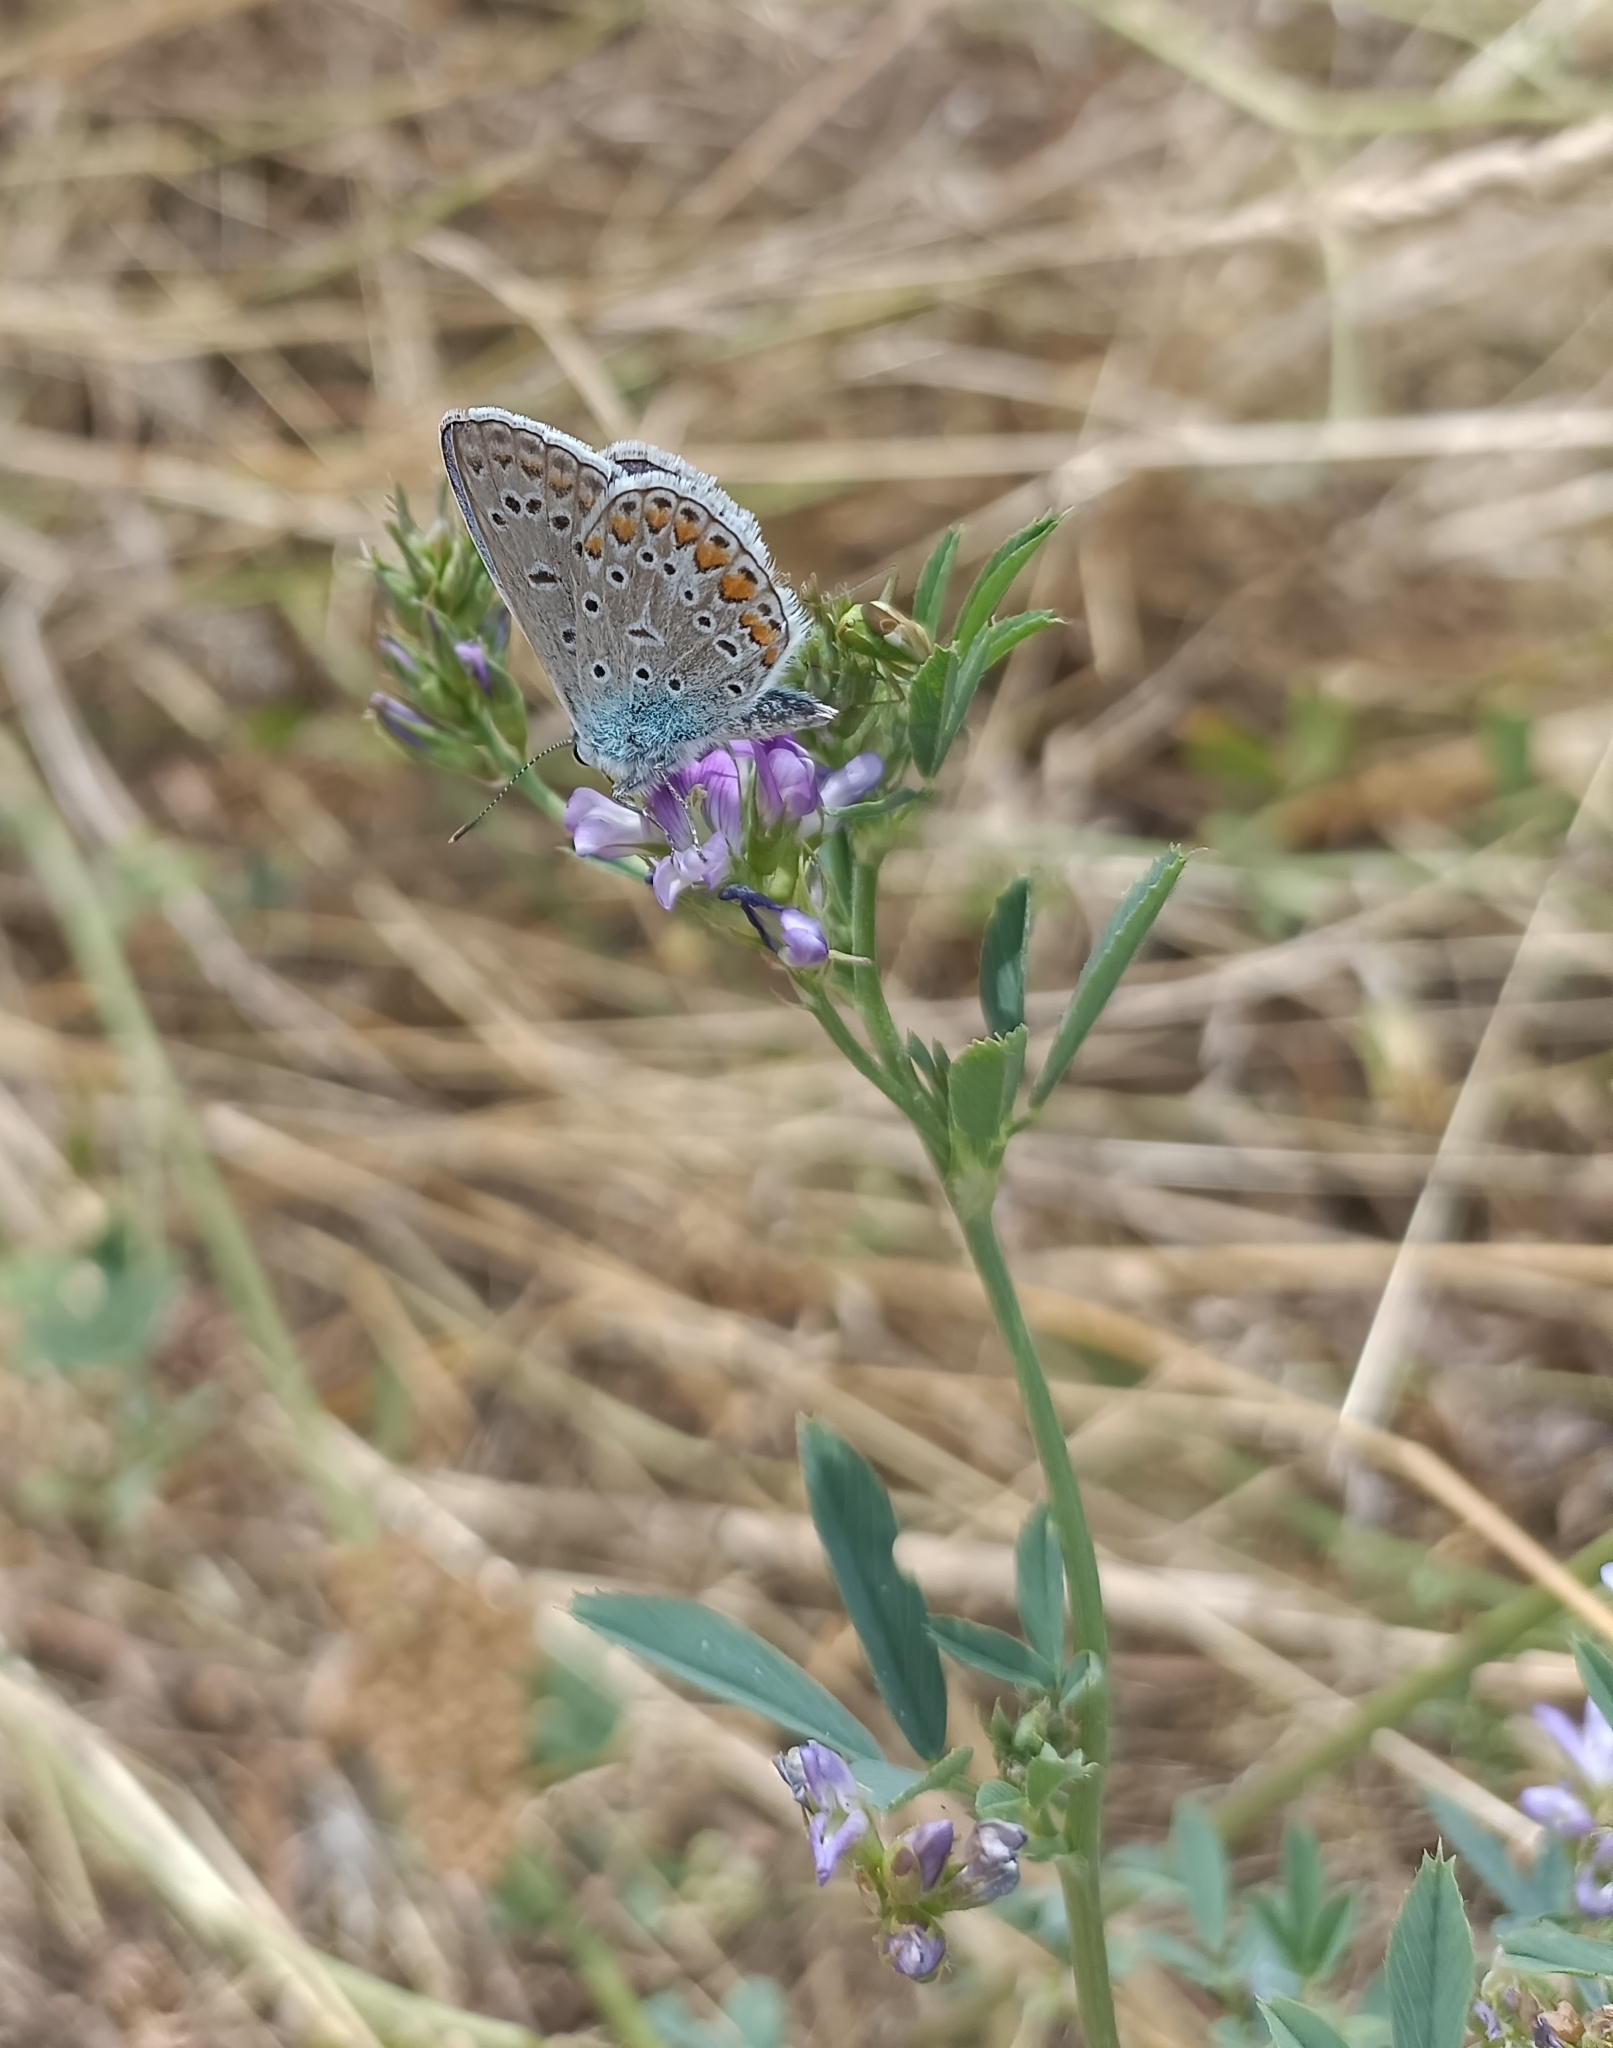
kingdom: Animalia
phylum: Arthropoda
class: Insecta
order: Lepidoptera
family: Lycaenidae
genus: Polyommatus
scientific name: Polyommatus icarus
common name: Common blue
